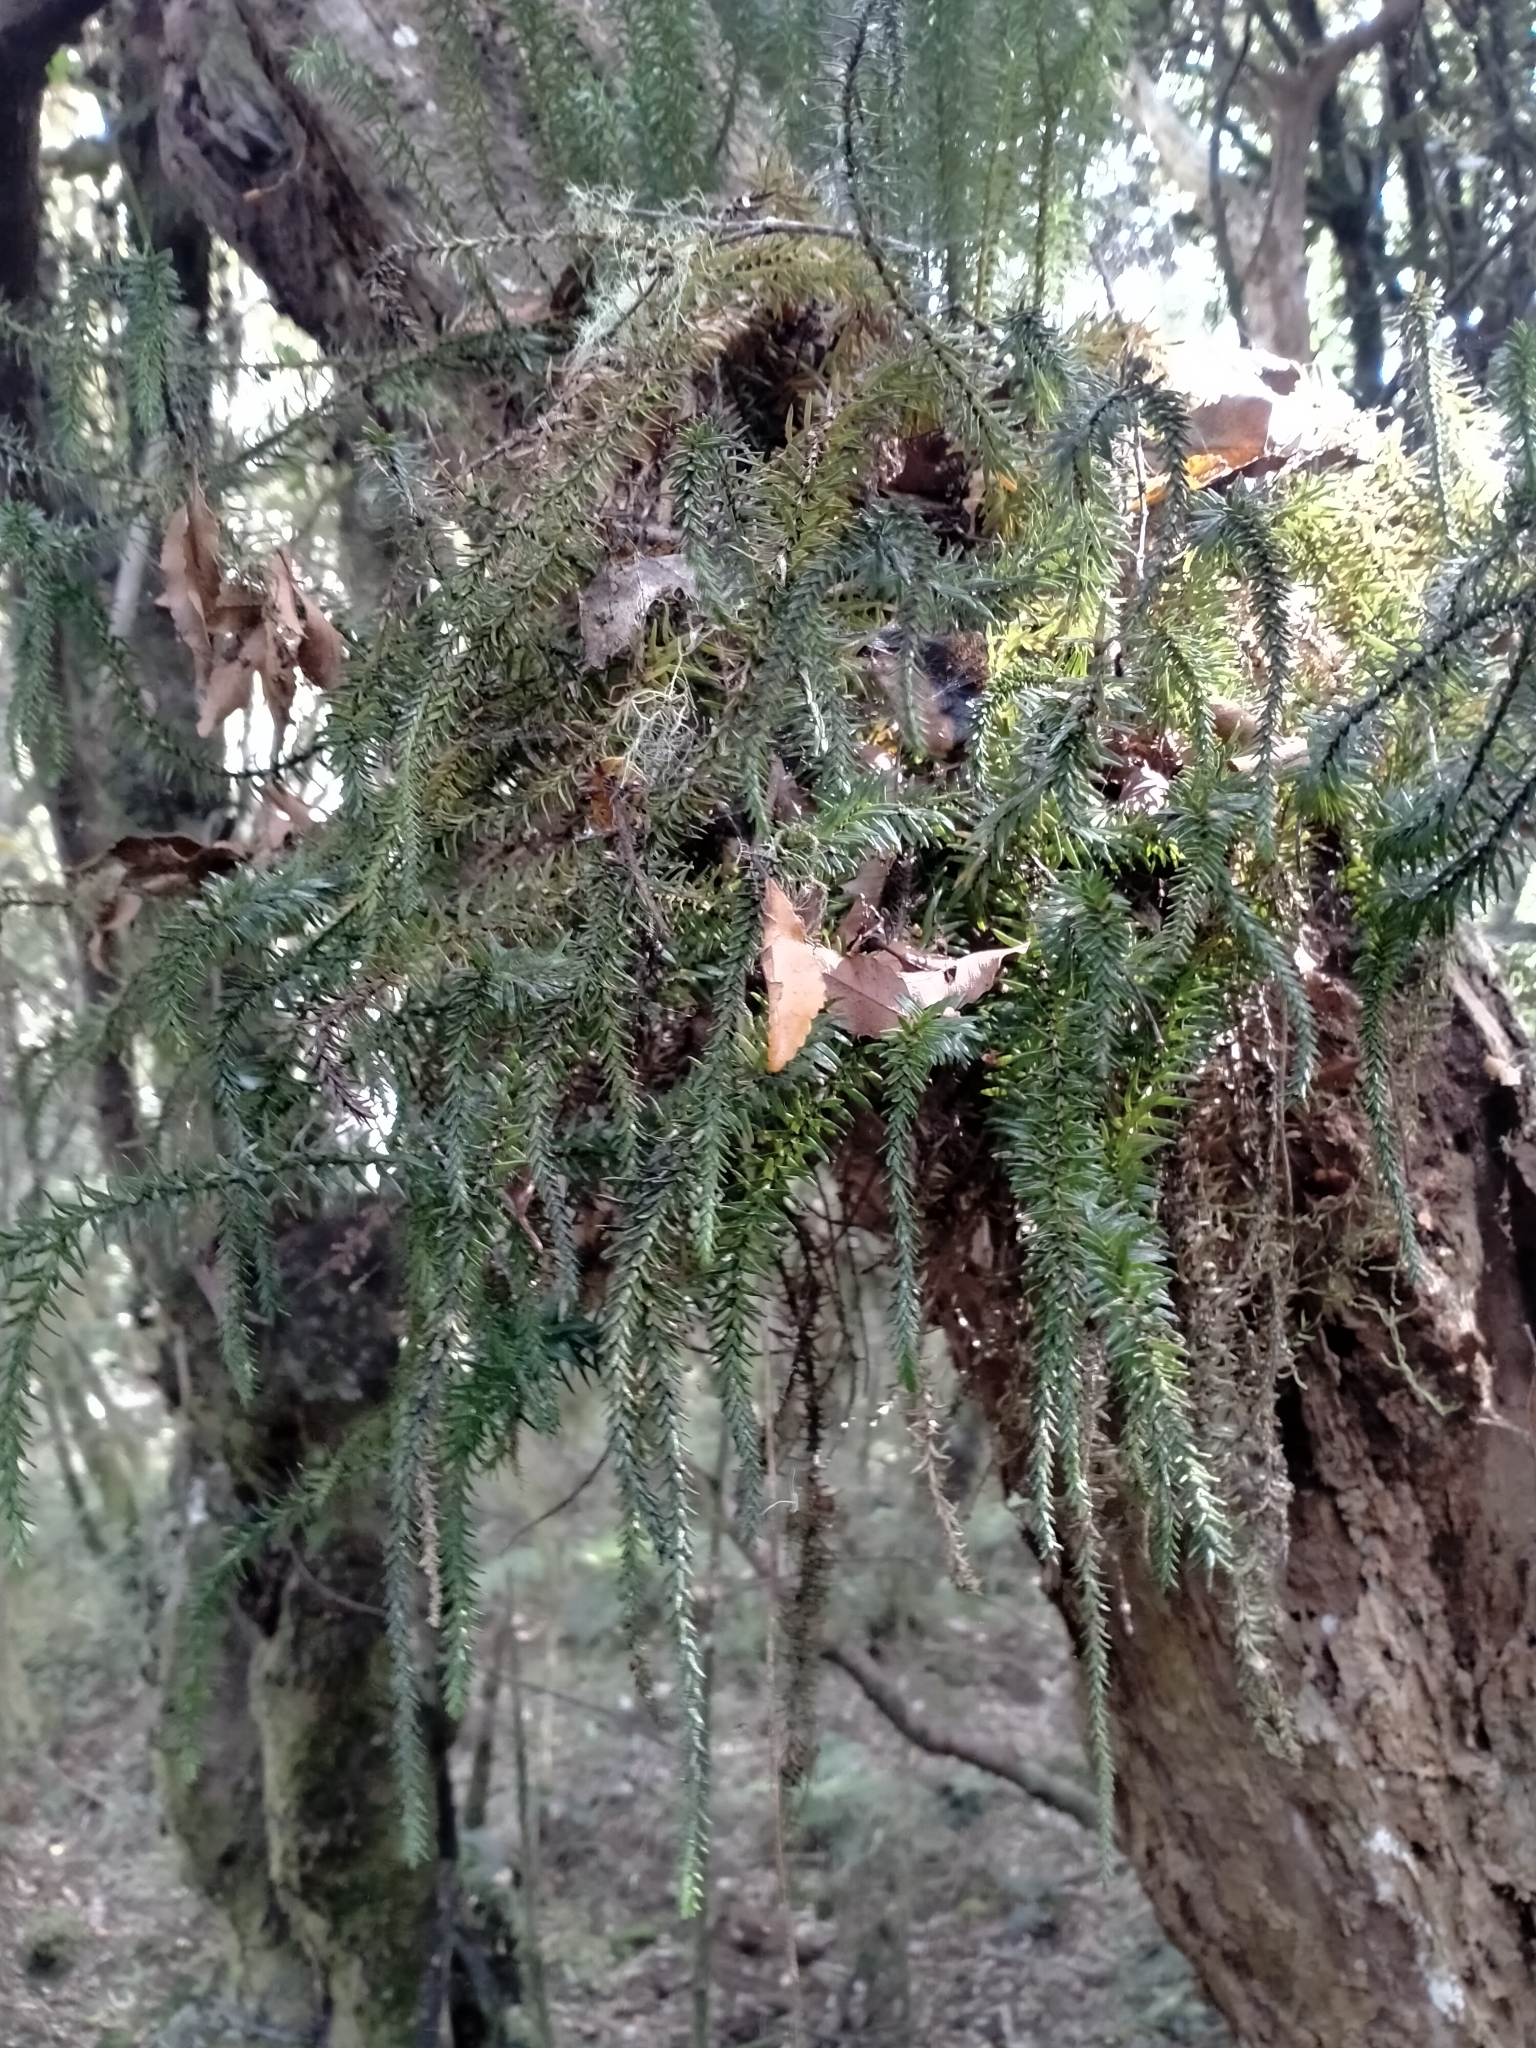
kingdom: Plantae
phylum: Tracheophyta
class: Lycopodiopsida
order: Lycopodiales
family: Lycopodiaceae
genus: Phlegmariurus
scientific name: Phlegmariurus varius
